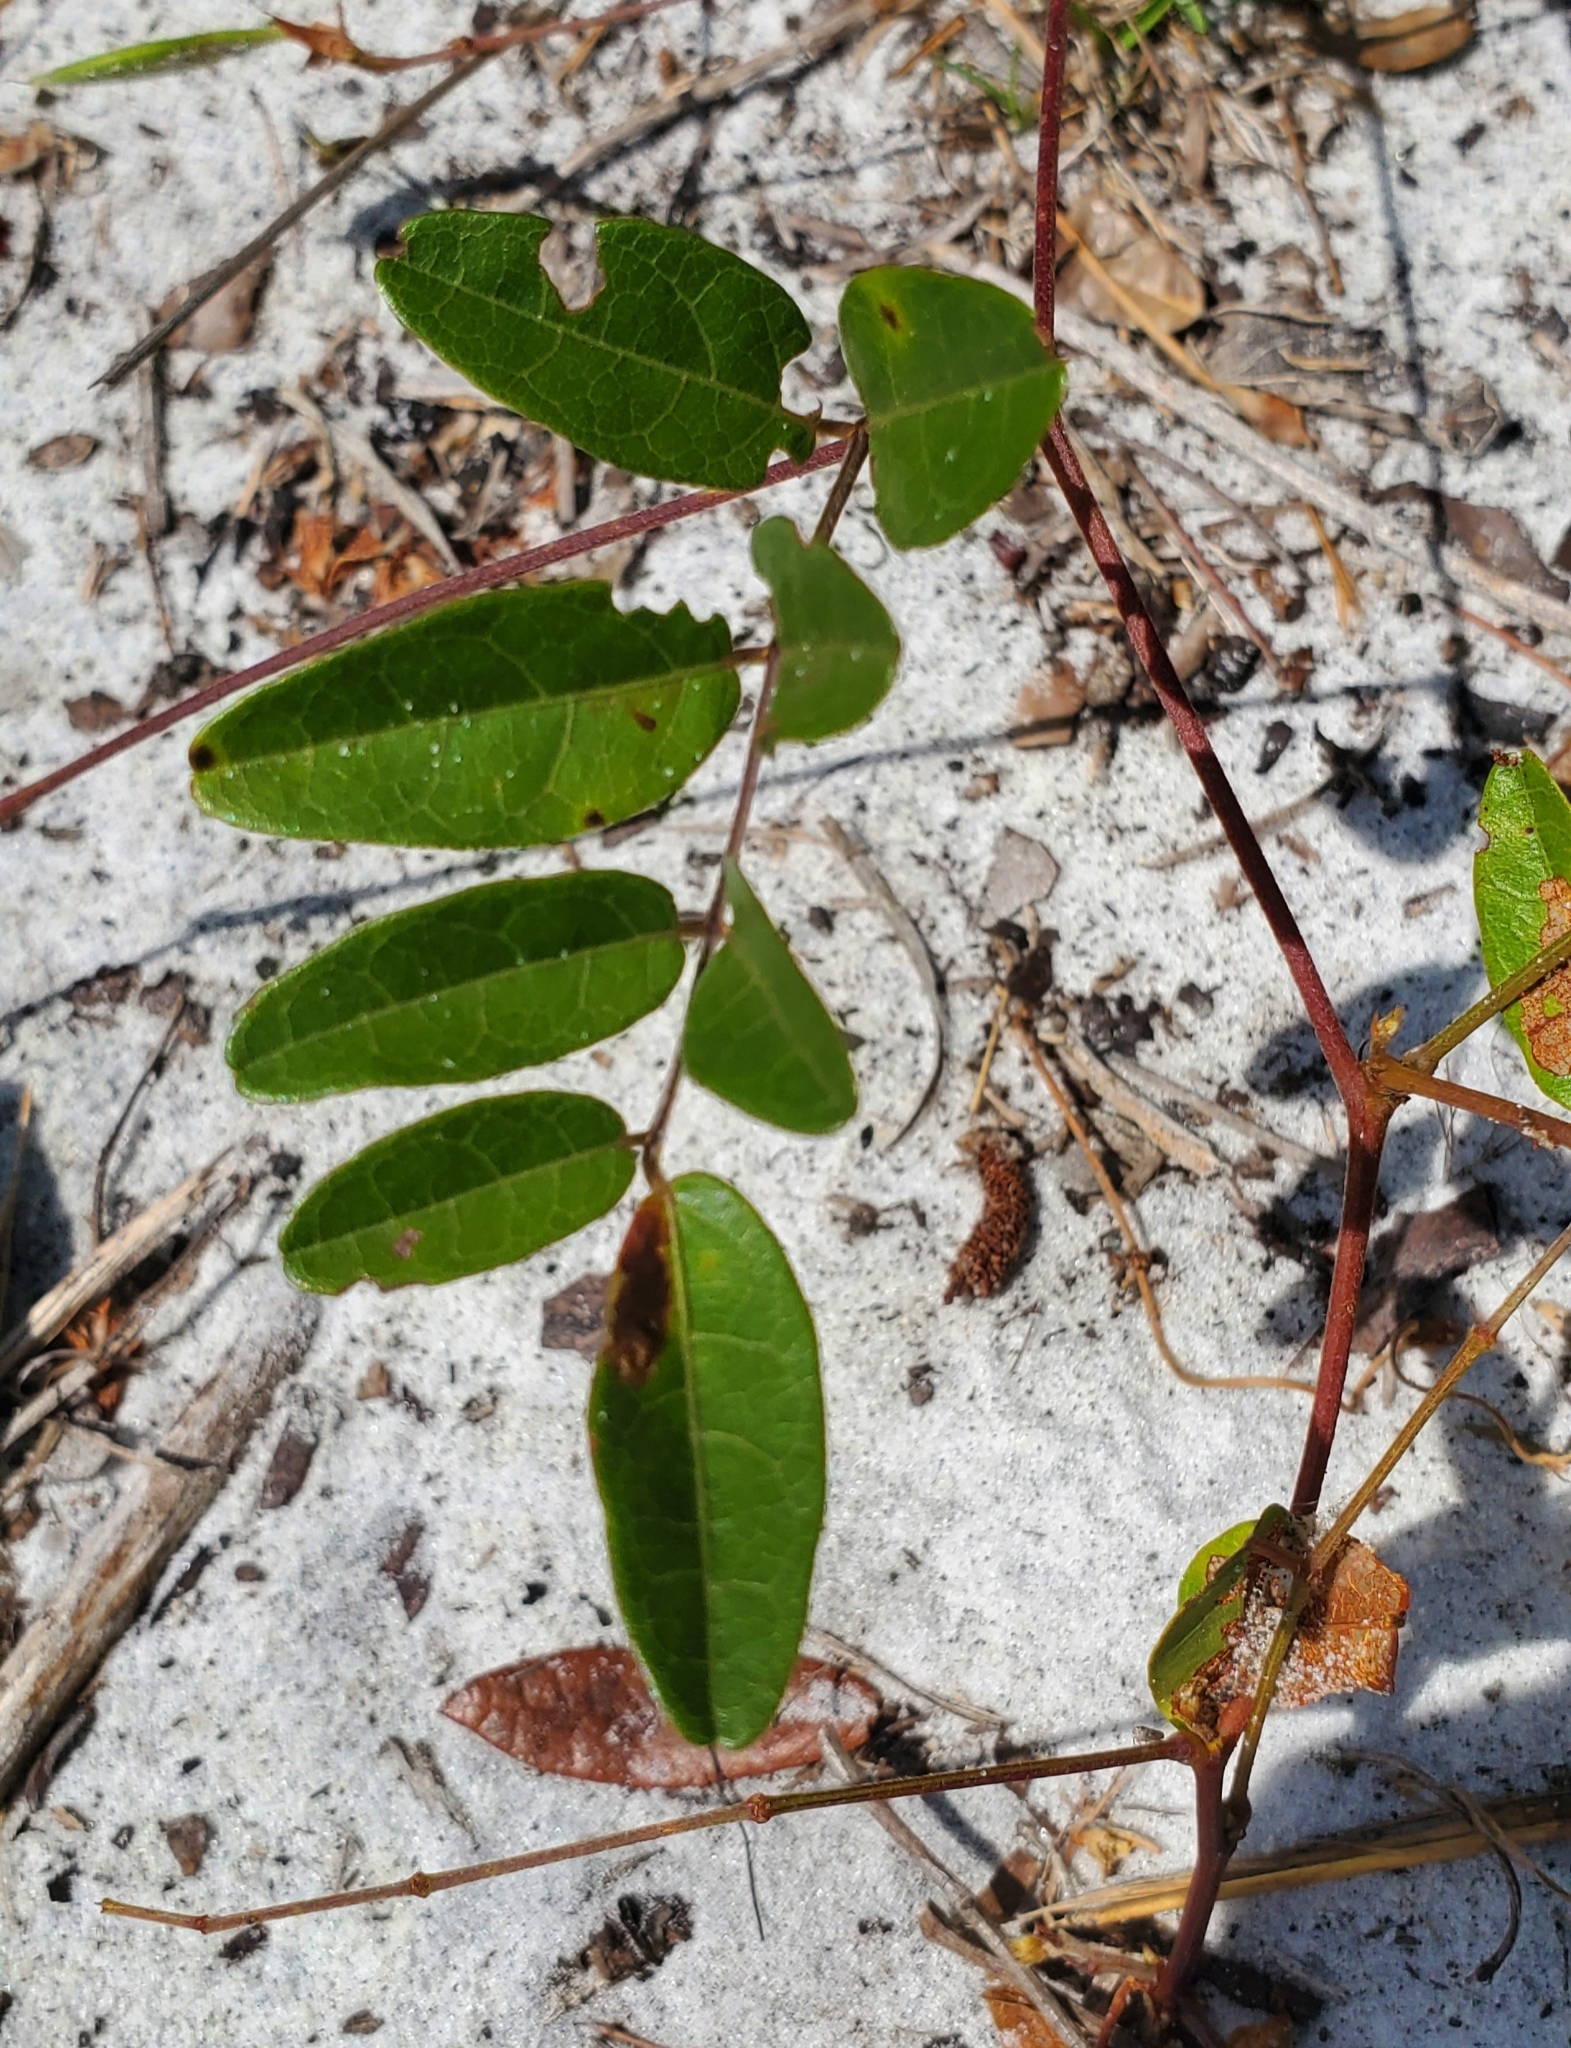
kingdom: Plantae
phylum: Tracheophyta
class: Magnoliopsida
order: Fabales
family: Fabaceae
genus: Galactia
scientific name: Galactia elliottii
